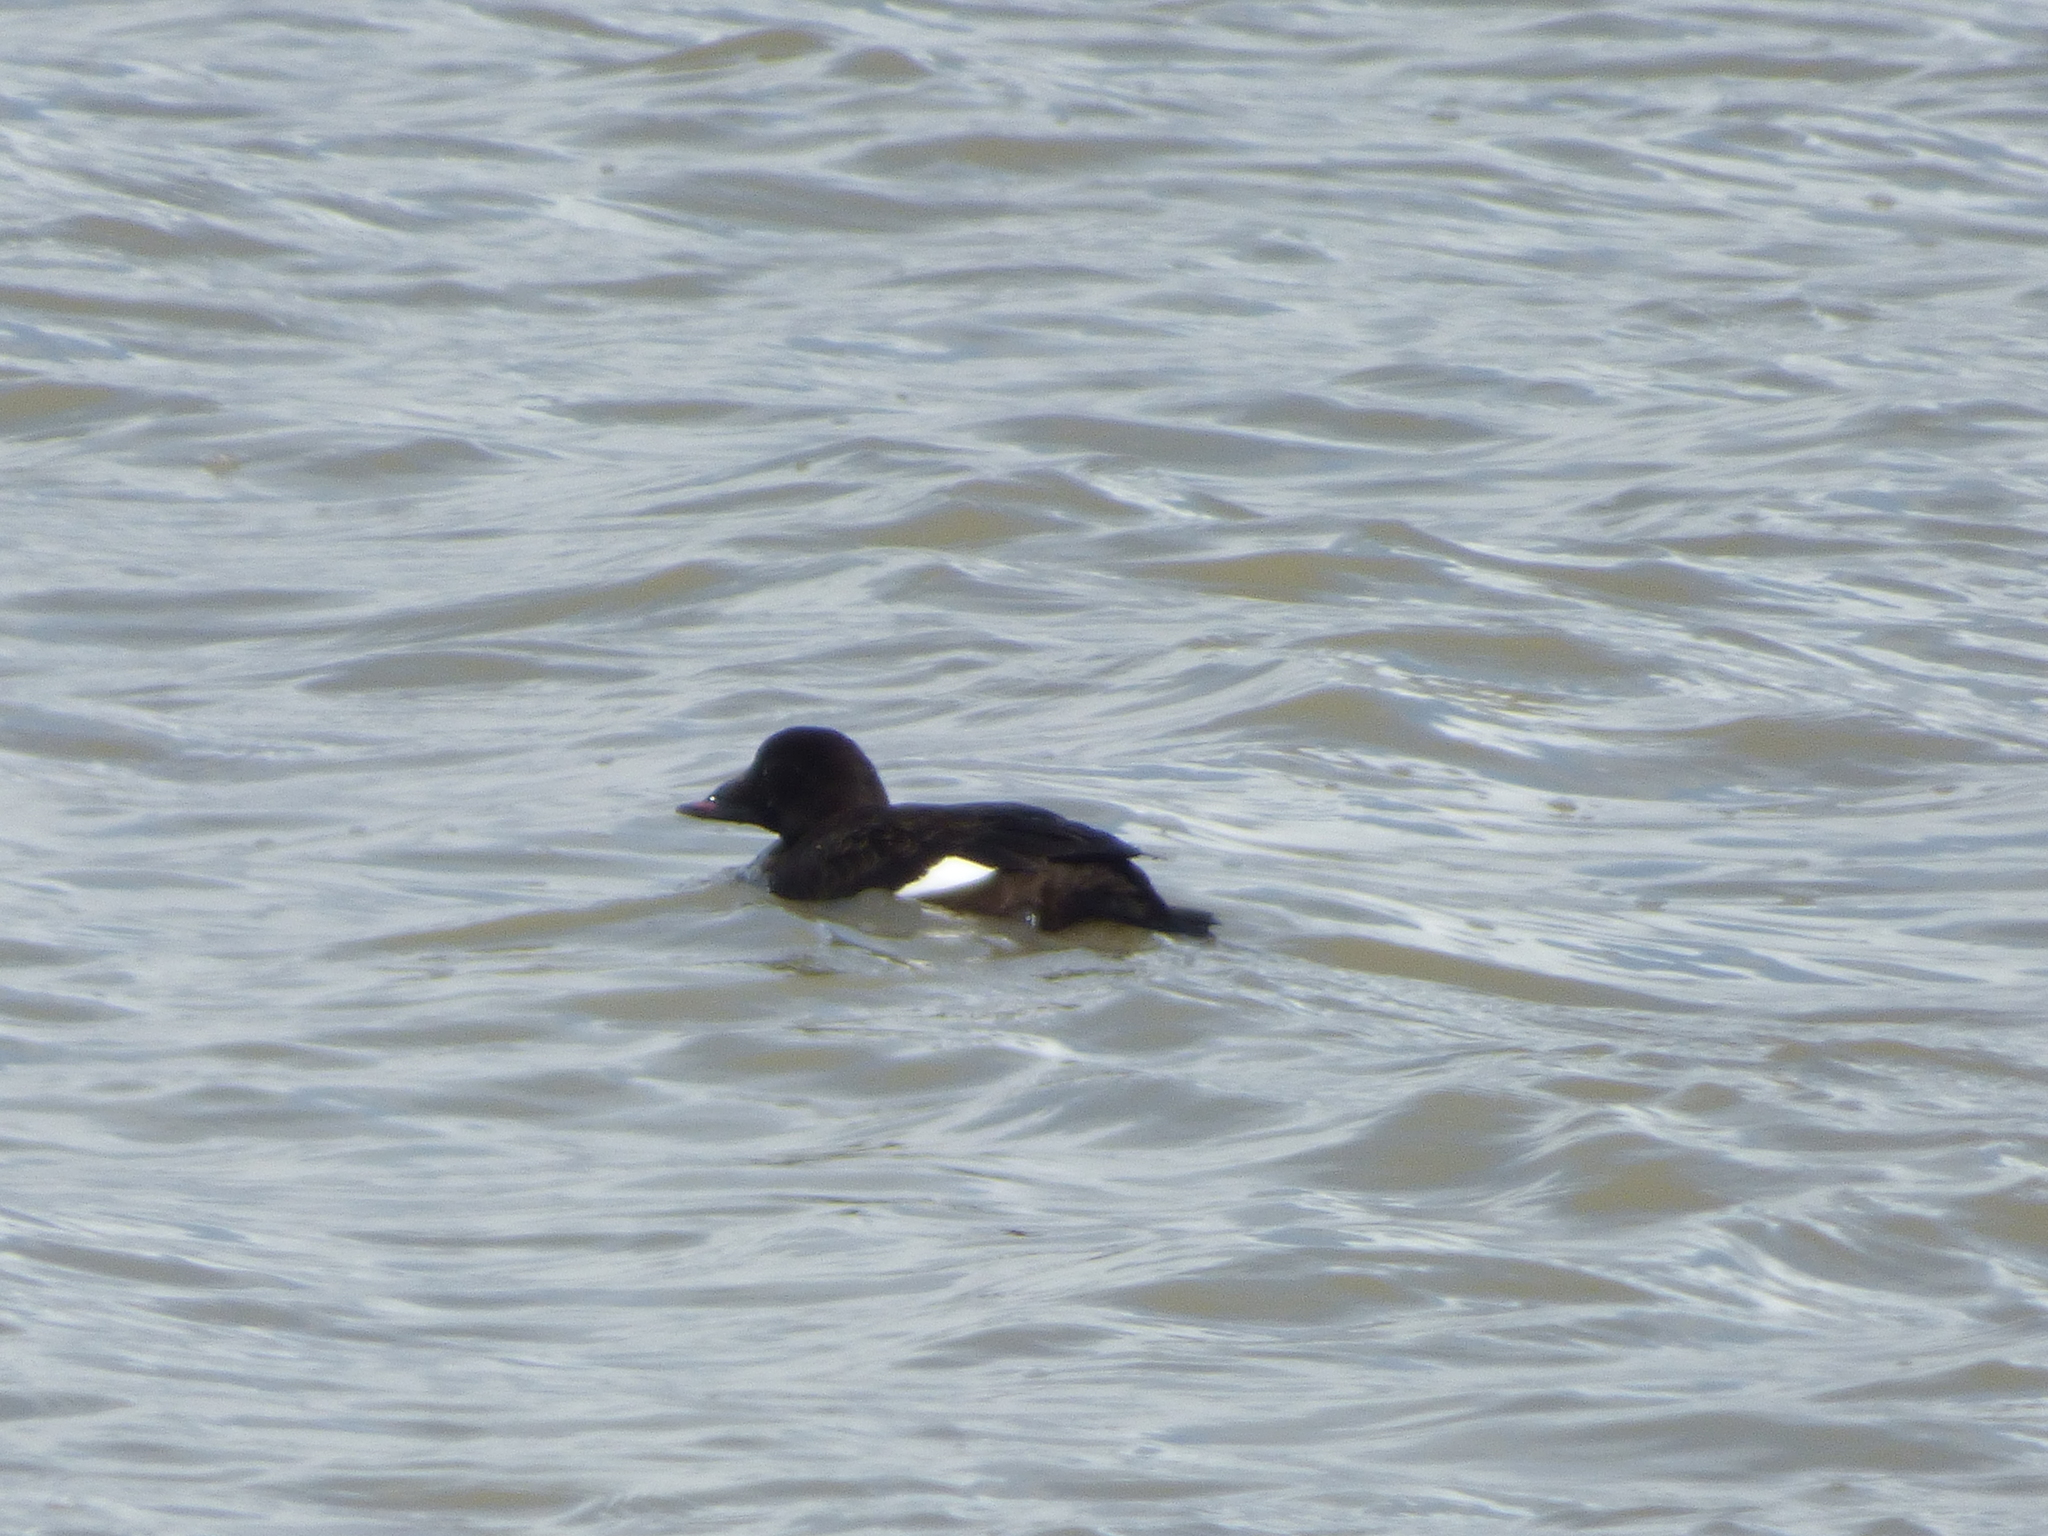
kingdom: Animalia
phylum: Chordata
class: Aves
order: Anseriformes
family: Anatidae
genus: Melanitta
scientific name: Melanitta deglandi
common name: White-winged scoter
